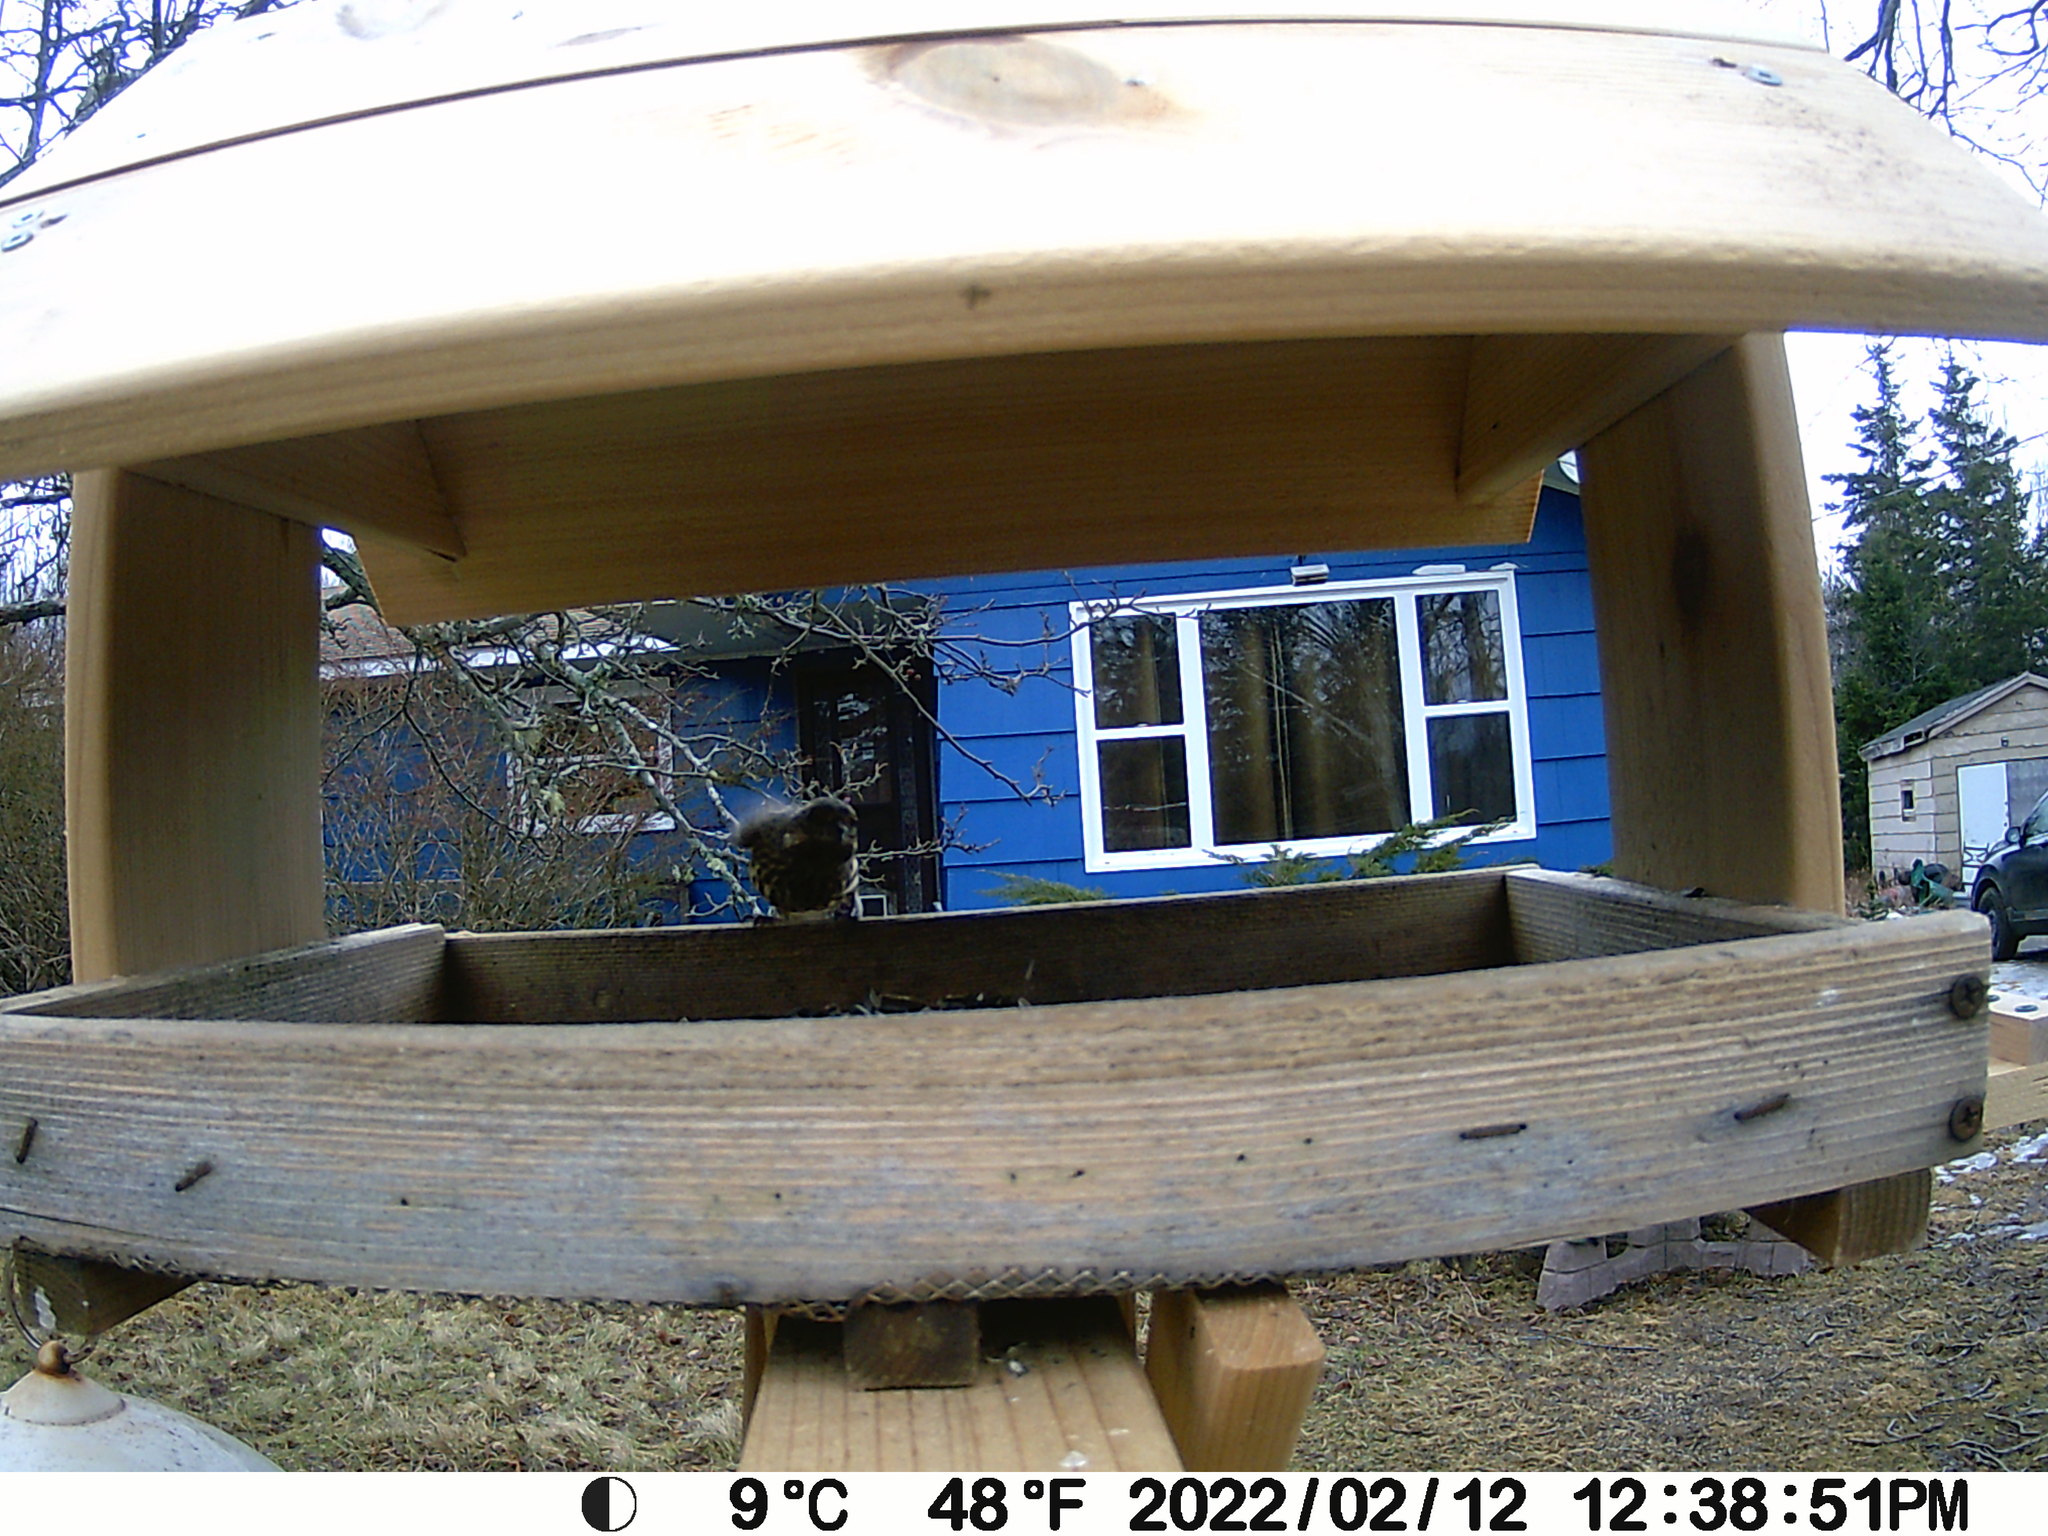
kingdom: Animalia
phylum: Chordata
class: Aves
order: Passeriformes
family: Fringillidae
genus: Haemorhous
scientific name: Haemorhous purpureus
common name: Purple finch
